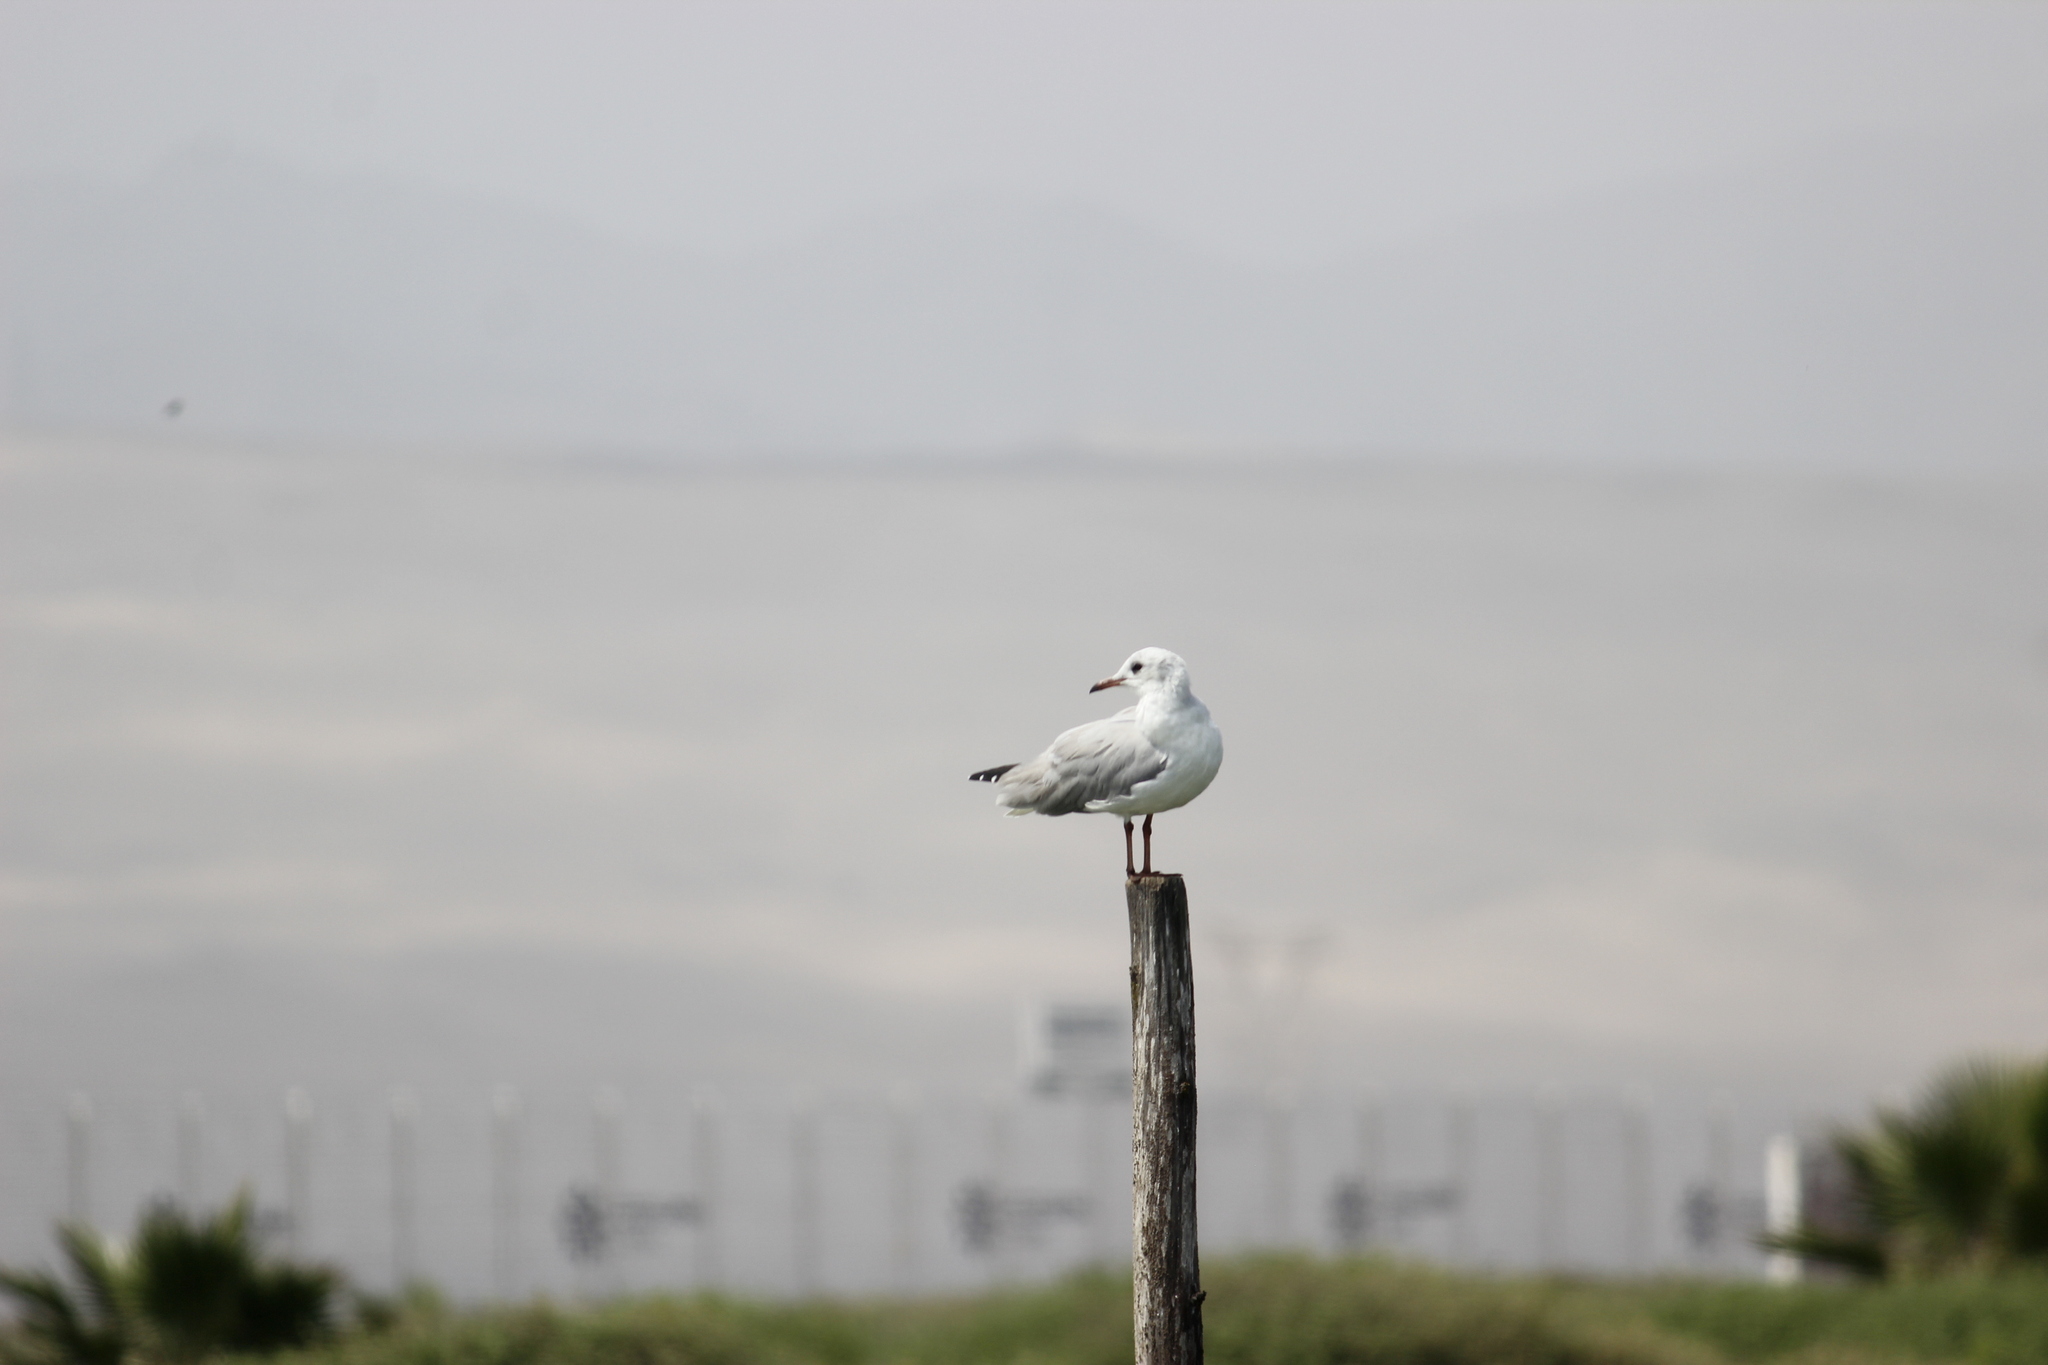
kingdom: Animalia
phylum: Chordata
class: Aves
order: Charadriiformes
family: Laridae
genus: Chroicocephalus
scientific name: Chroicocephalus cirrocephalus
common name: Grey-headed gull
